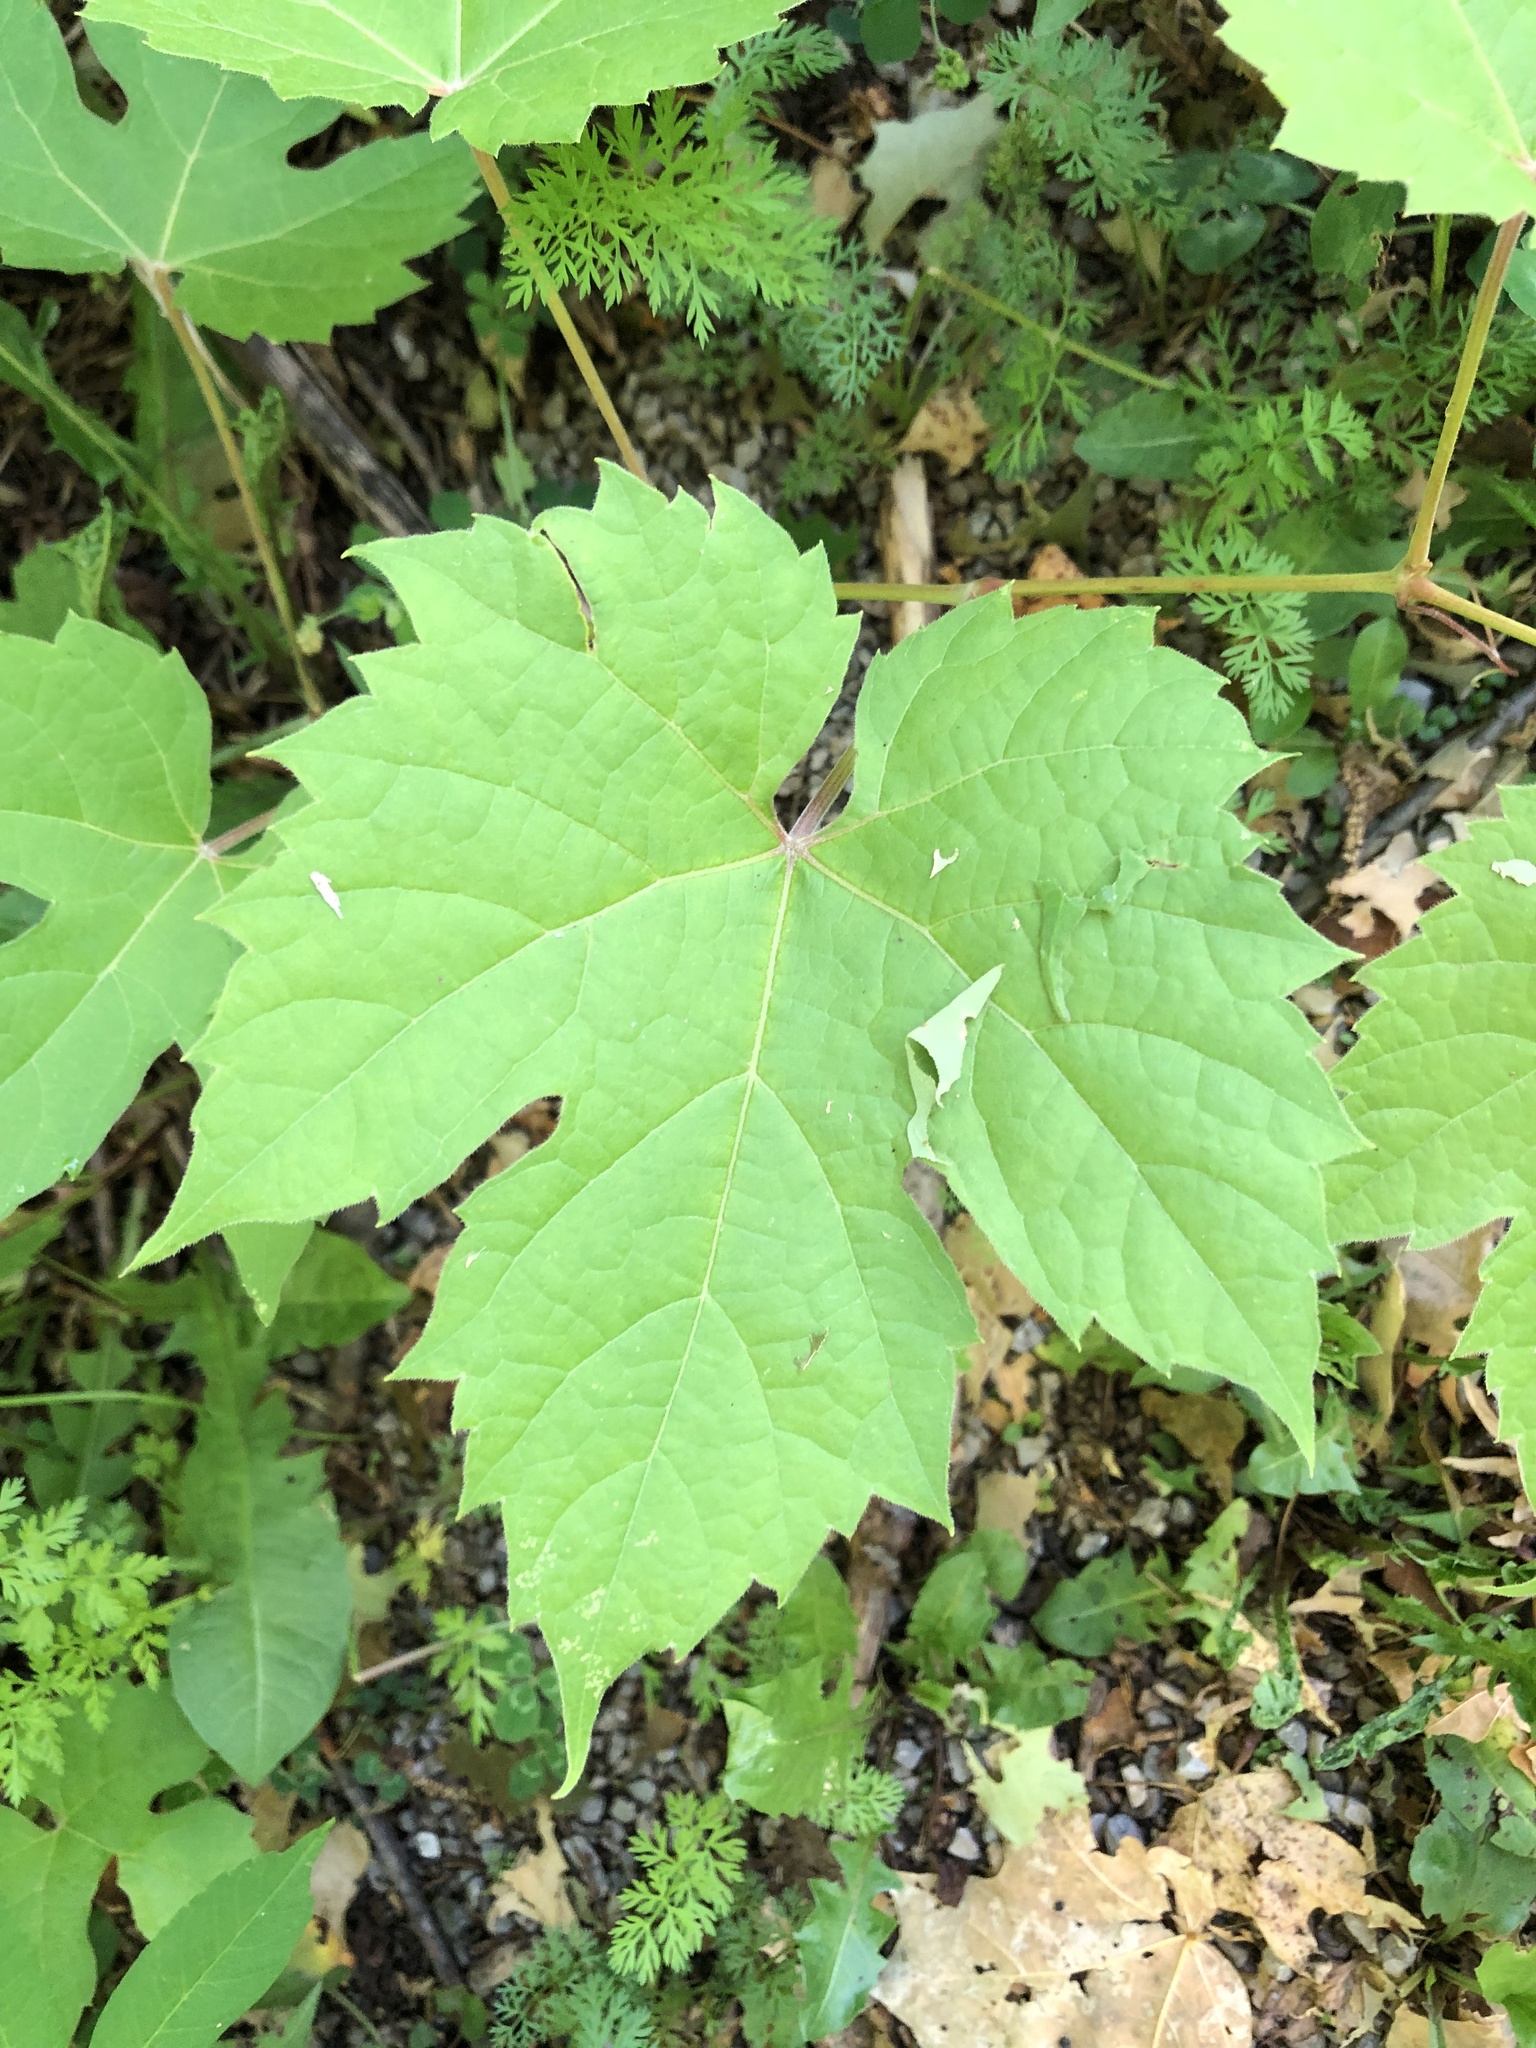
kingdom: Plantae
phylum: Tracheophyta
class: Magnoliopsida
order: Vitales
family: Vitaceae
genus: Vitis
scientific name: Vitis riparia
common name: Frost grape
